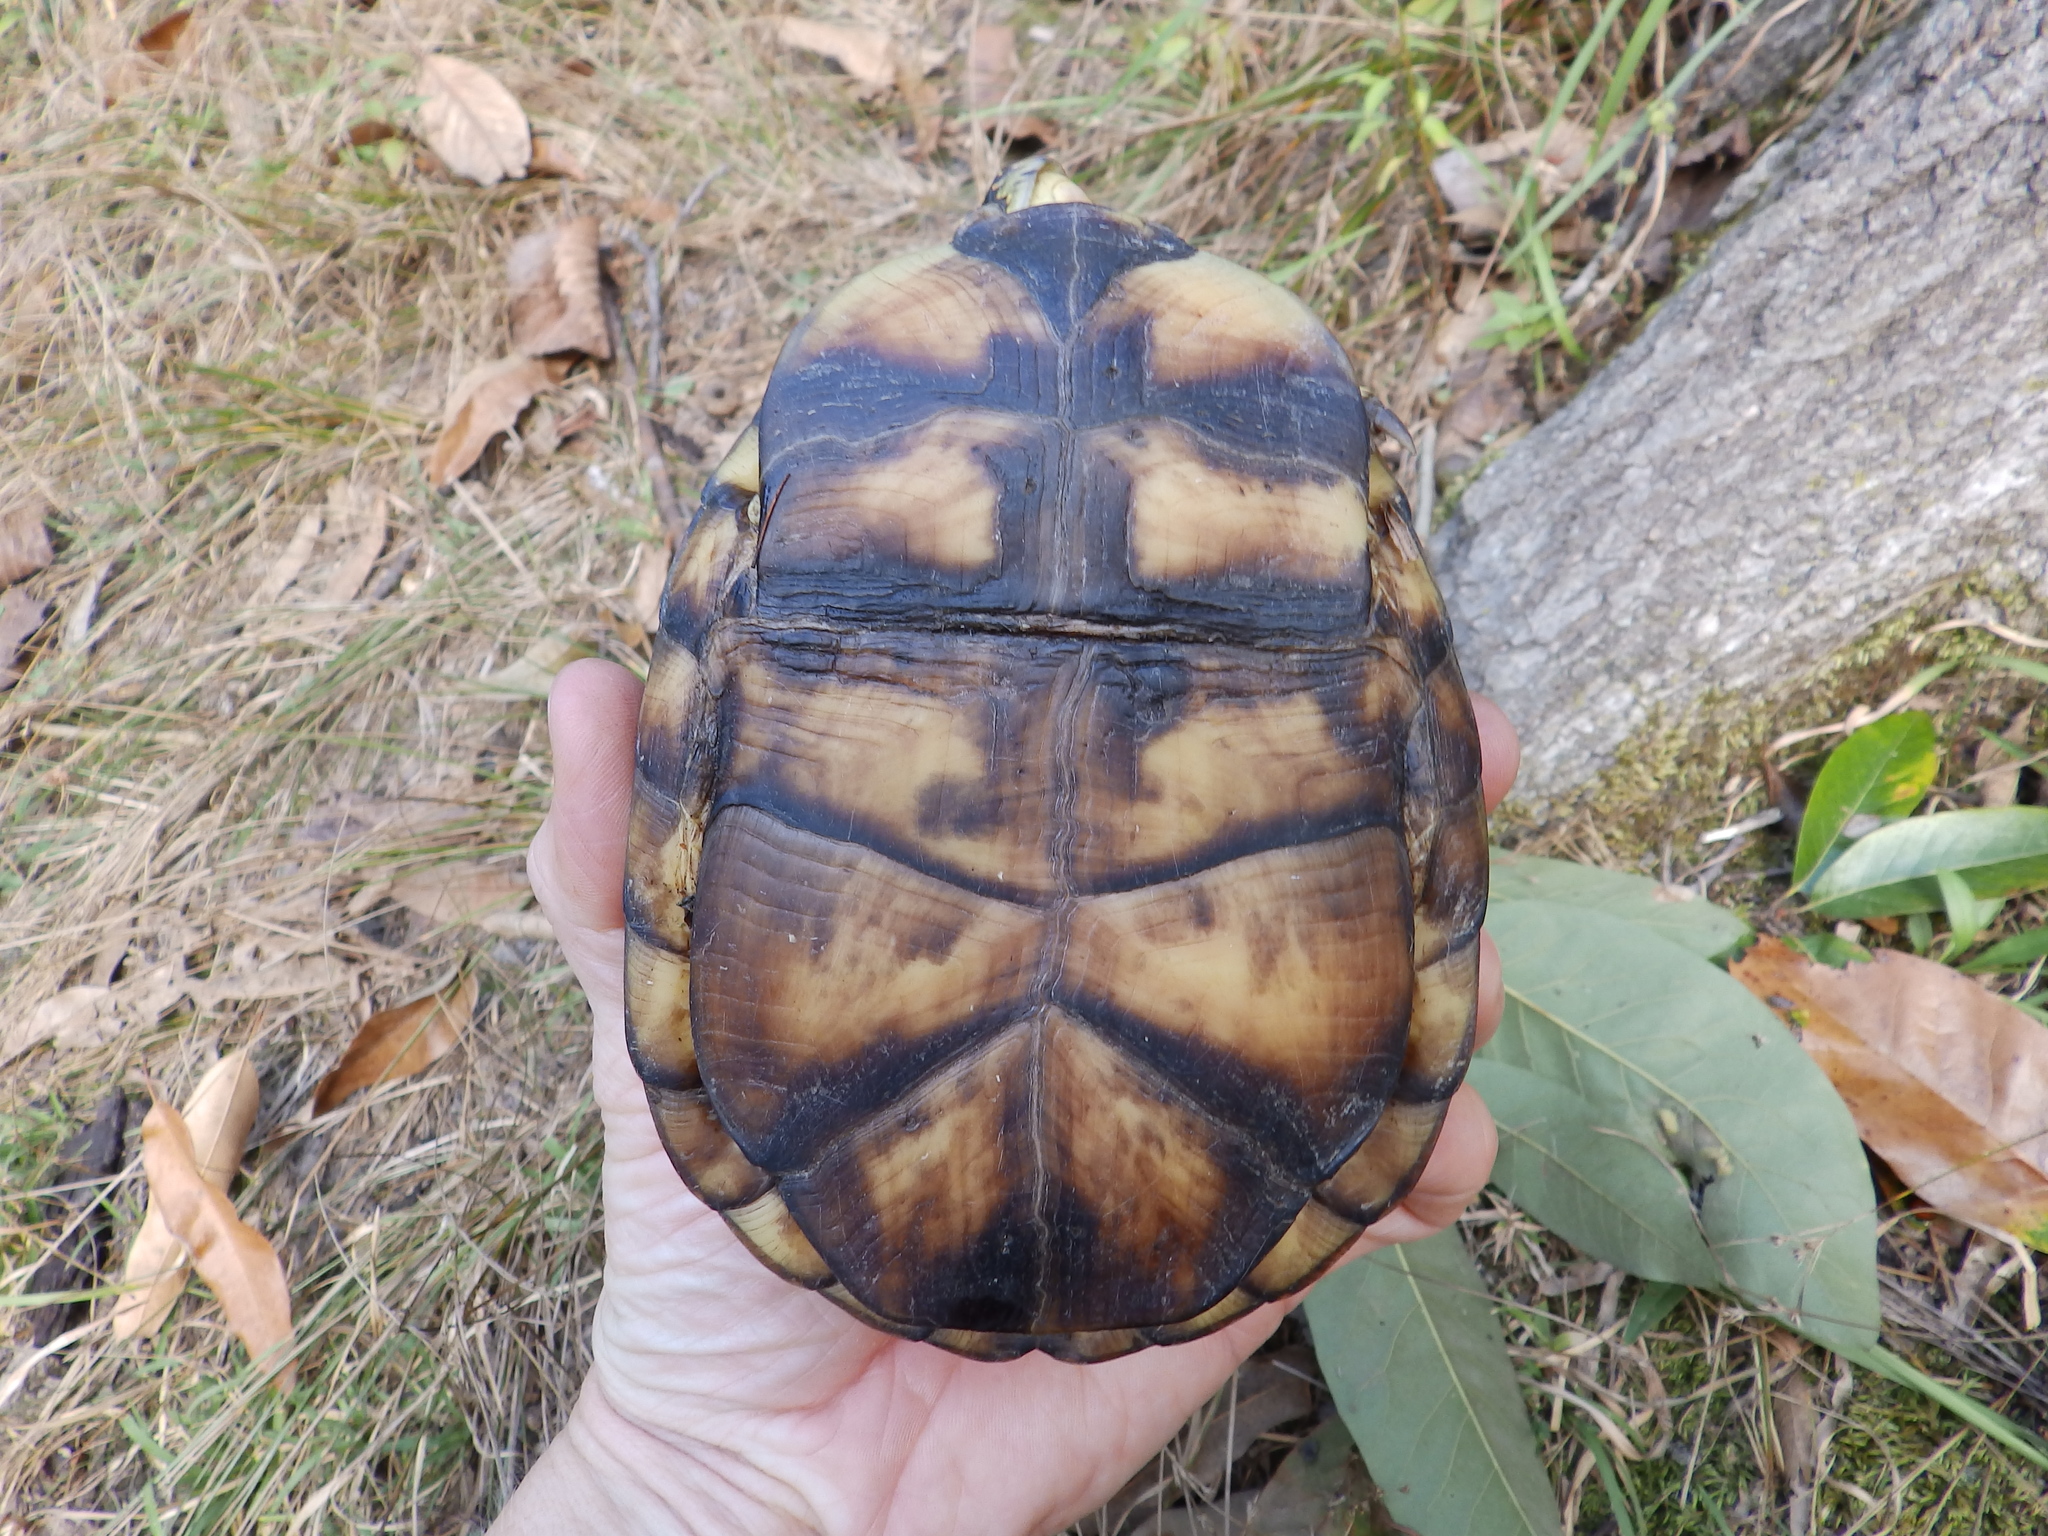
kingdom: Animalia
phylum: Chordata
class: Testudines
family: Emydidae
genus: Terrapene
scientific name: Terrapene carolina
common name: Common box turtle
